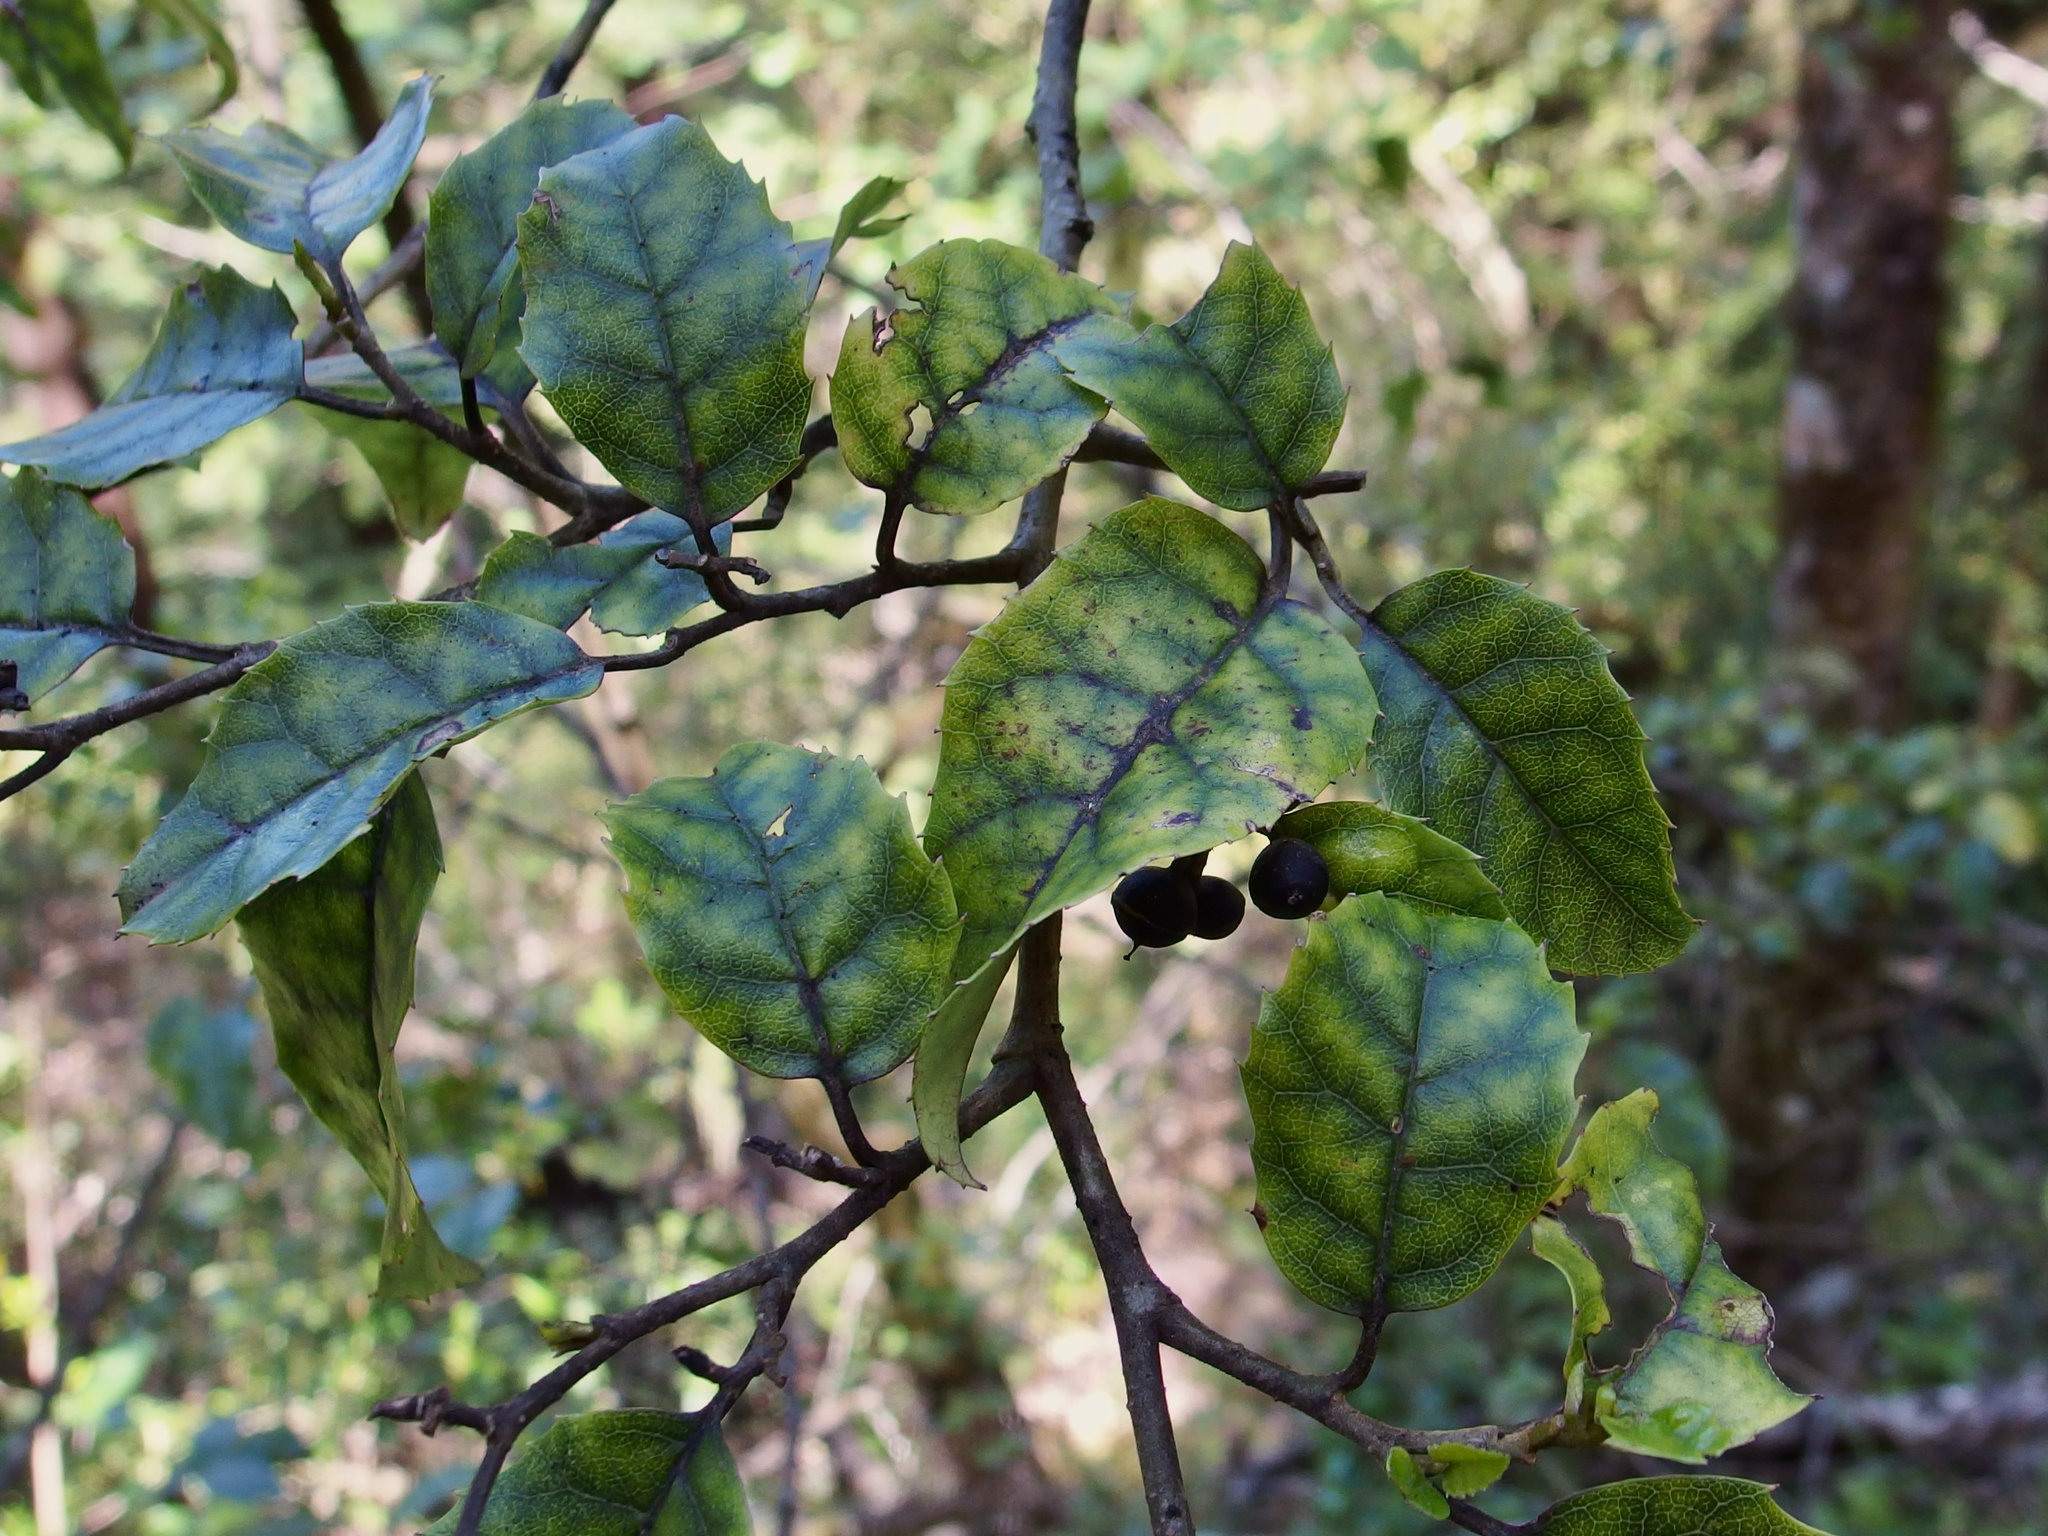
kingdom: Plantae
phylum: Tracheophyta
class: Magnoliopsida
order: Asterales
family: Rousseaceae
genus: Carpodetus
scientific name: Carpodetus serratus
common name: White mapau
